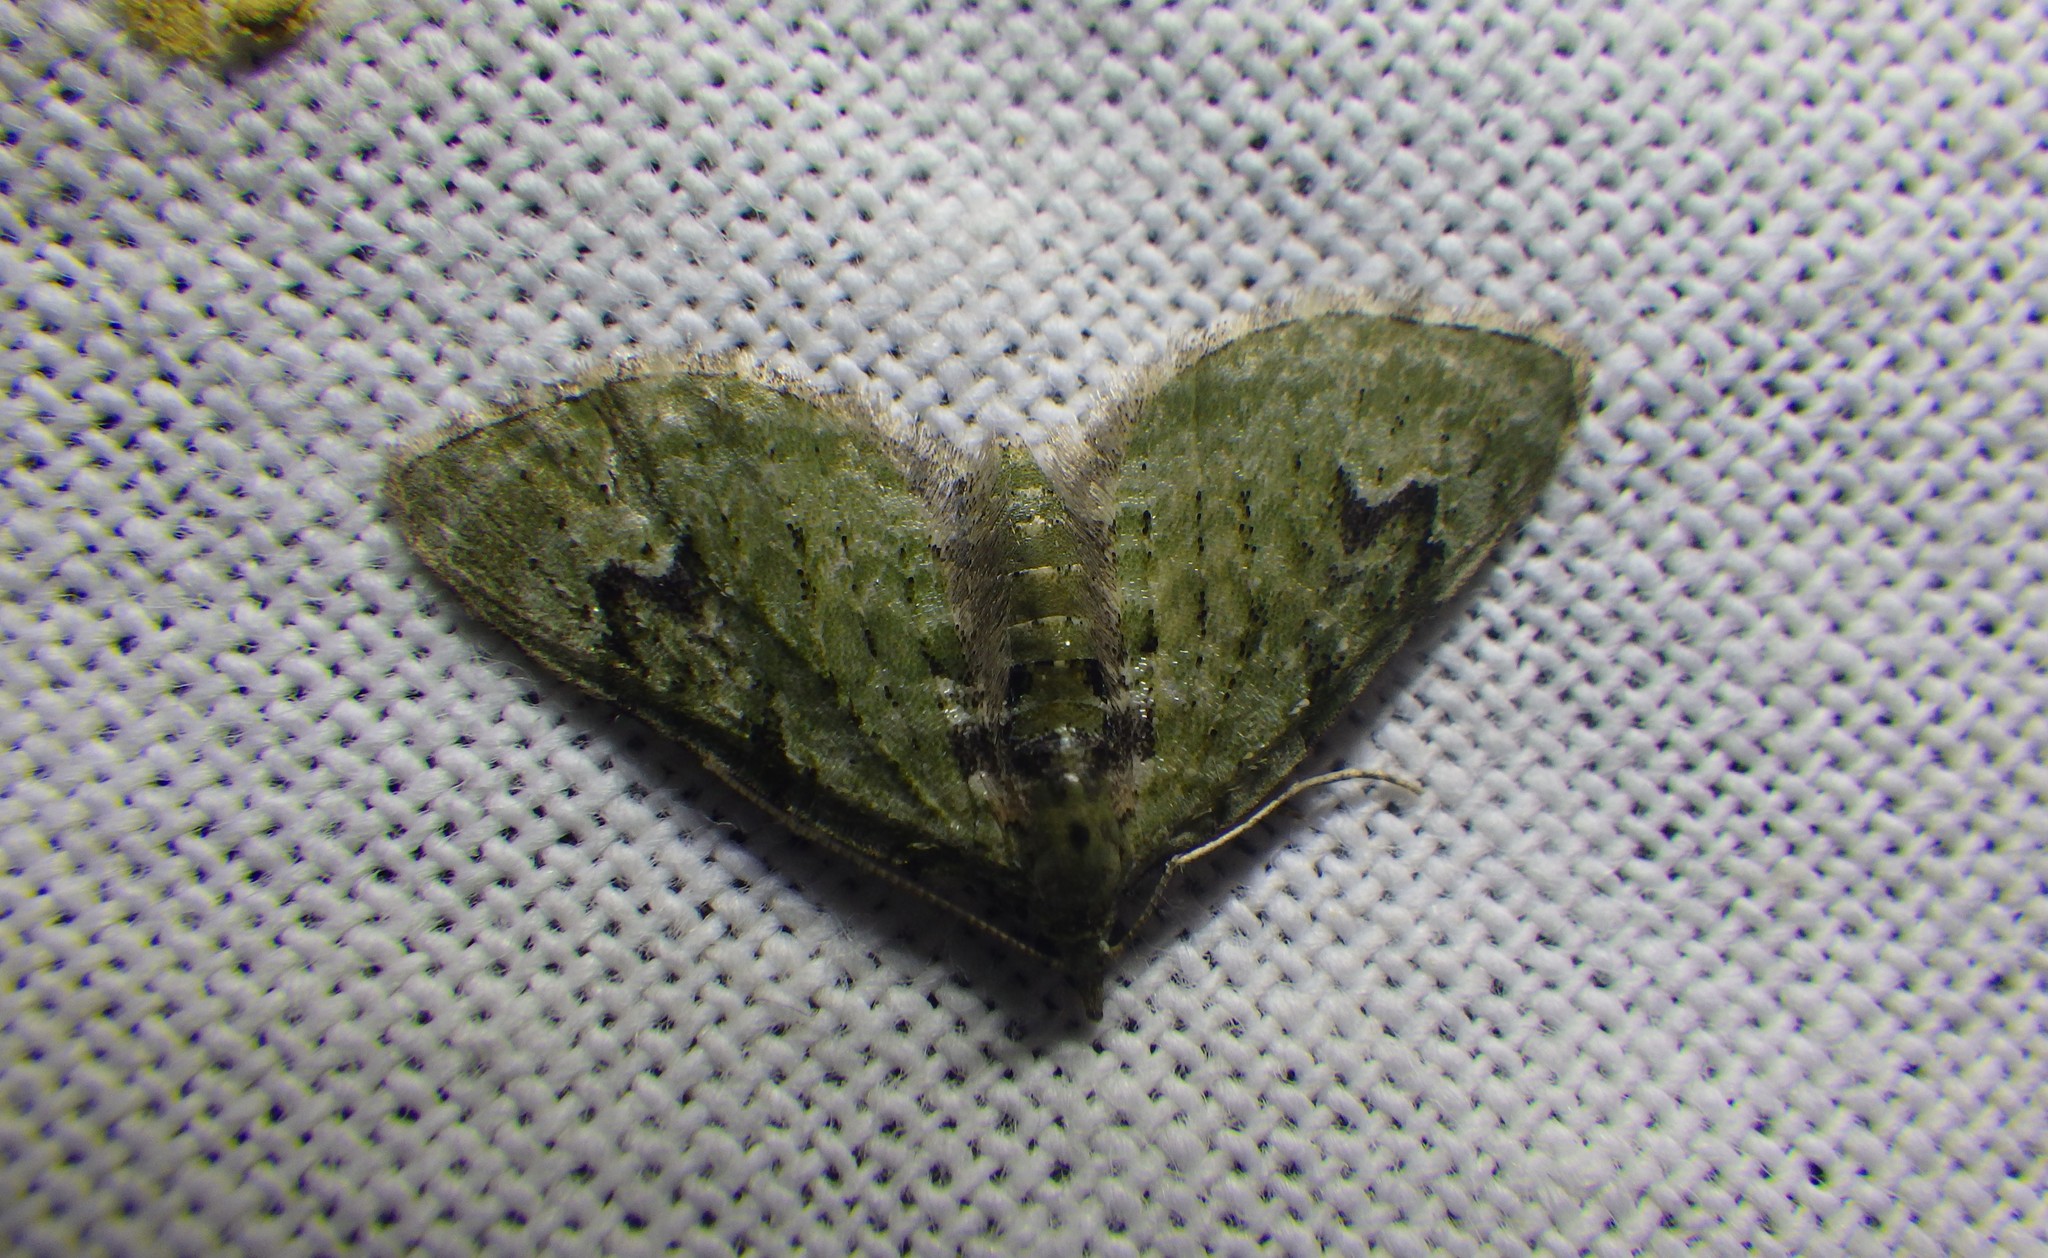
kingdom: Animalia
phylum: Arthropoda
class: Insecta
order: Lepidoptera
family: Geometridae
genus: Chloroclystis
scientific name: Chloroclystis v-ata
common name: V-pug
